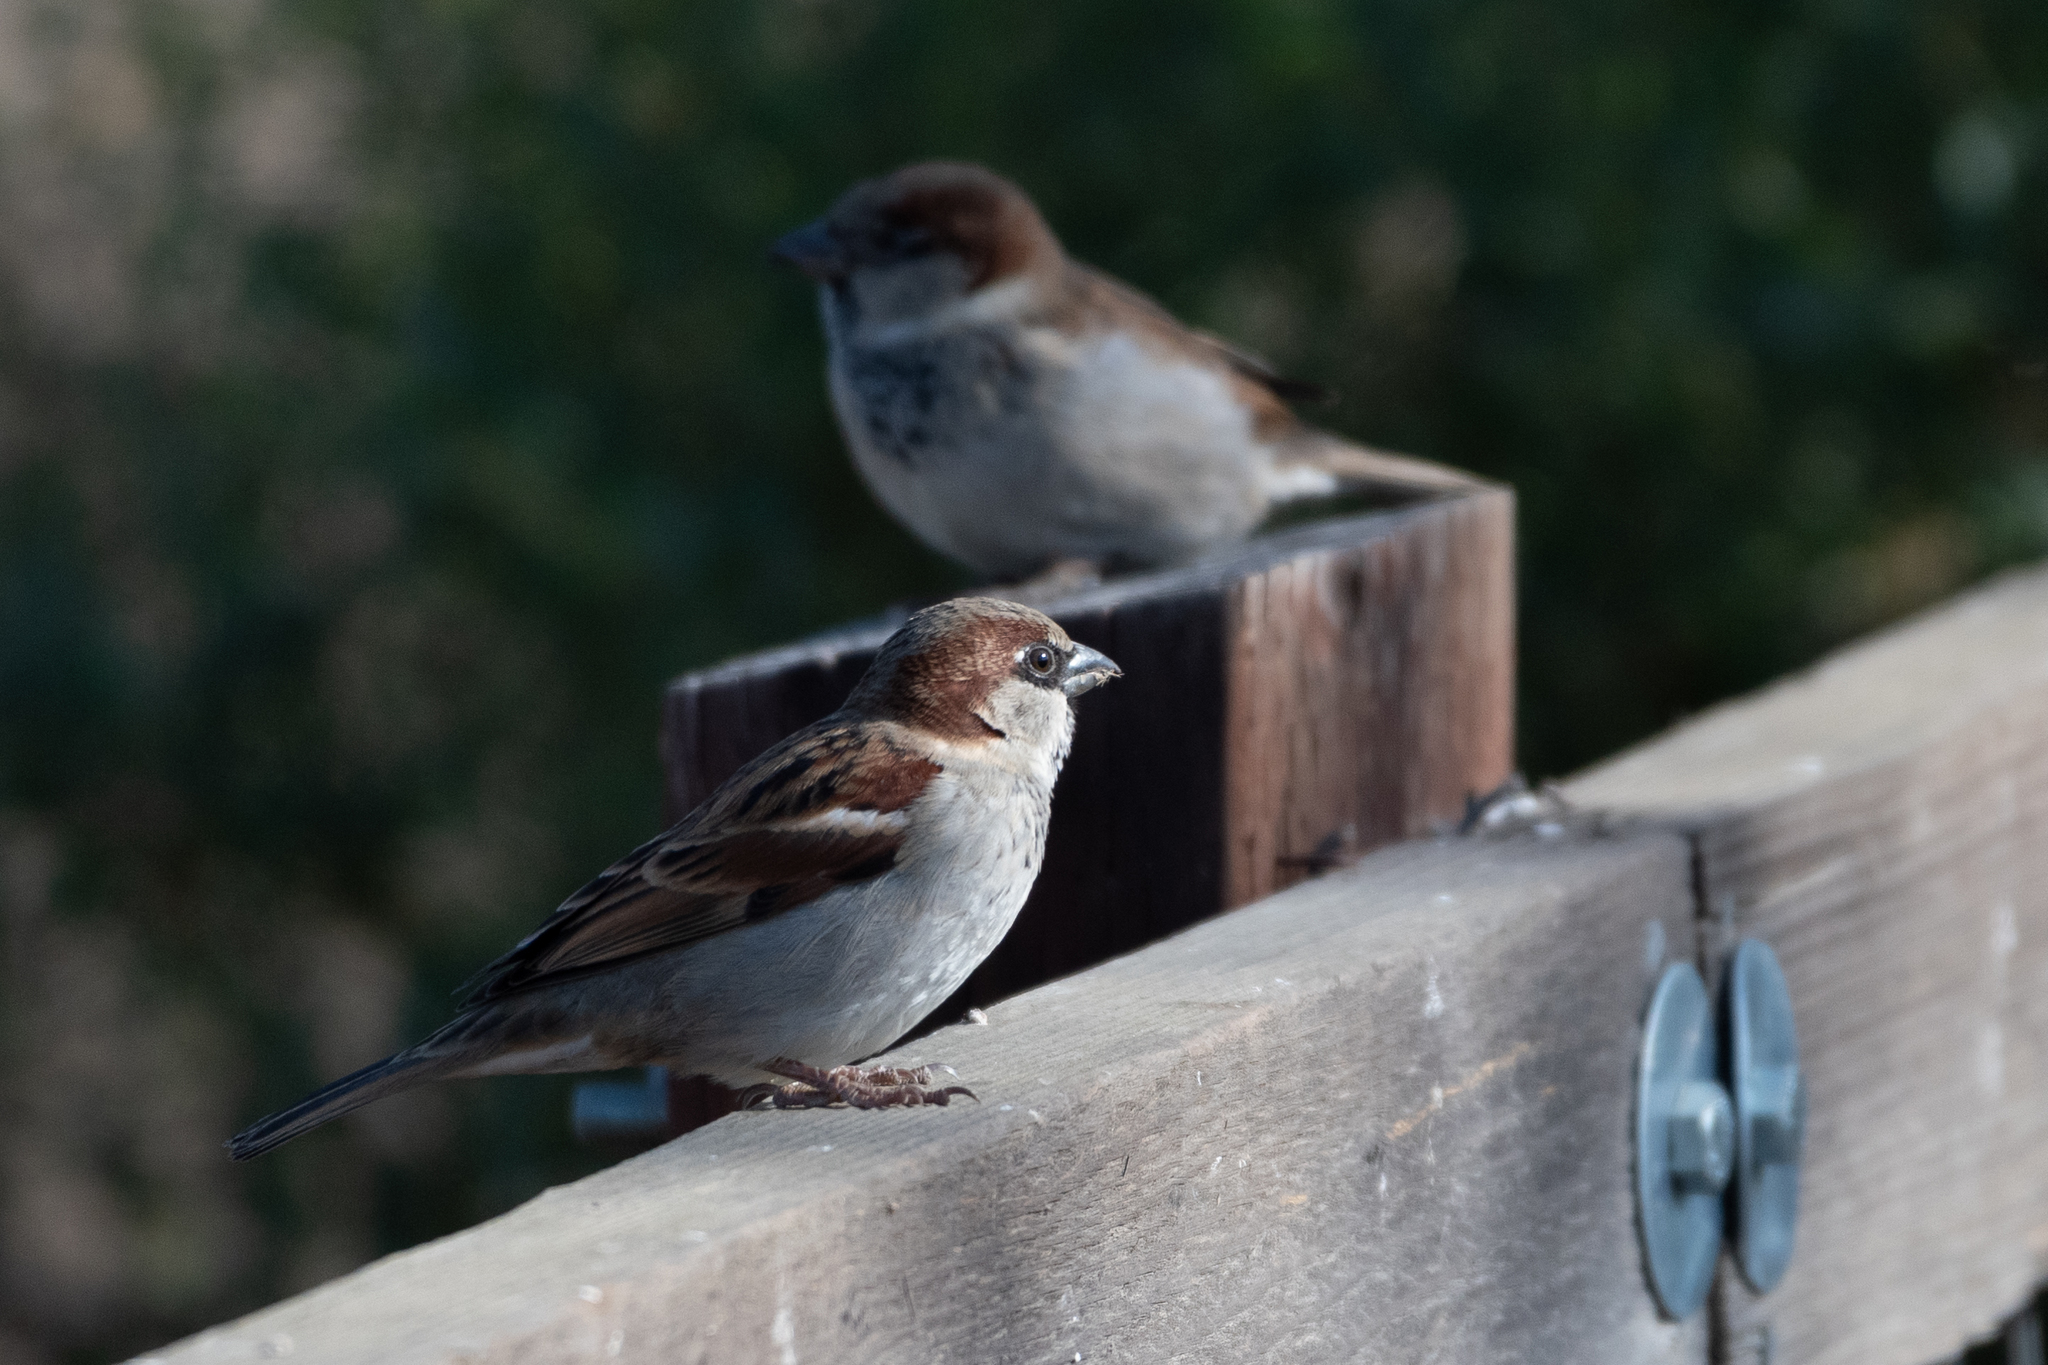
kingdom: Animalia
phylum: Chordata
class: Aves
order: Passeriformes
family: Passeridae
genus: Passer
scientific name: Passer domesticus
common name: House sparrow
